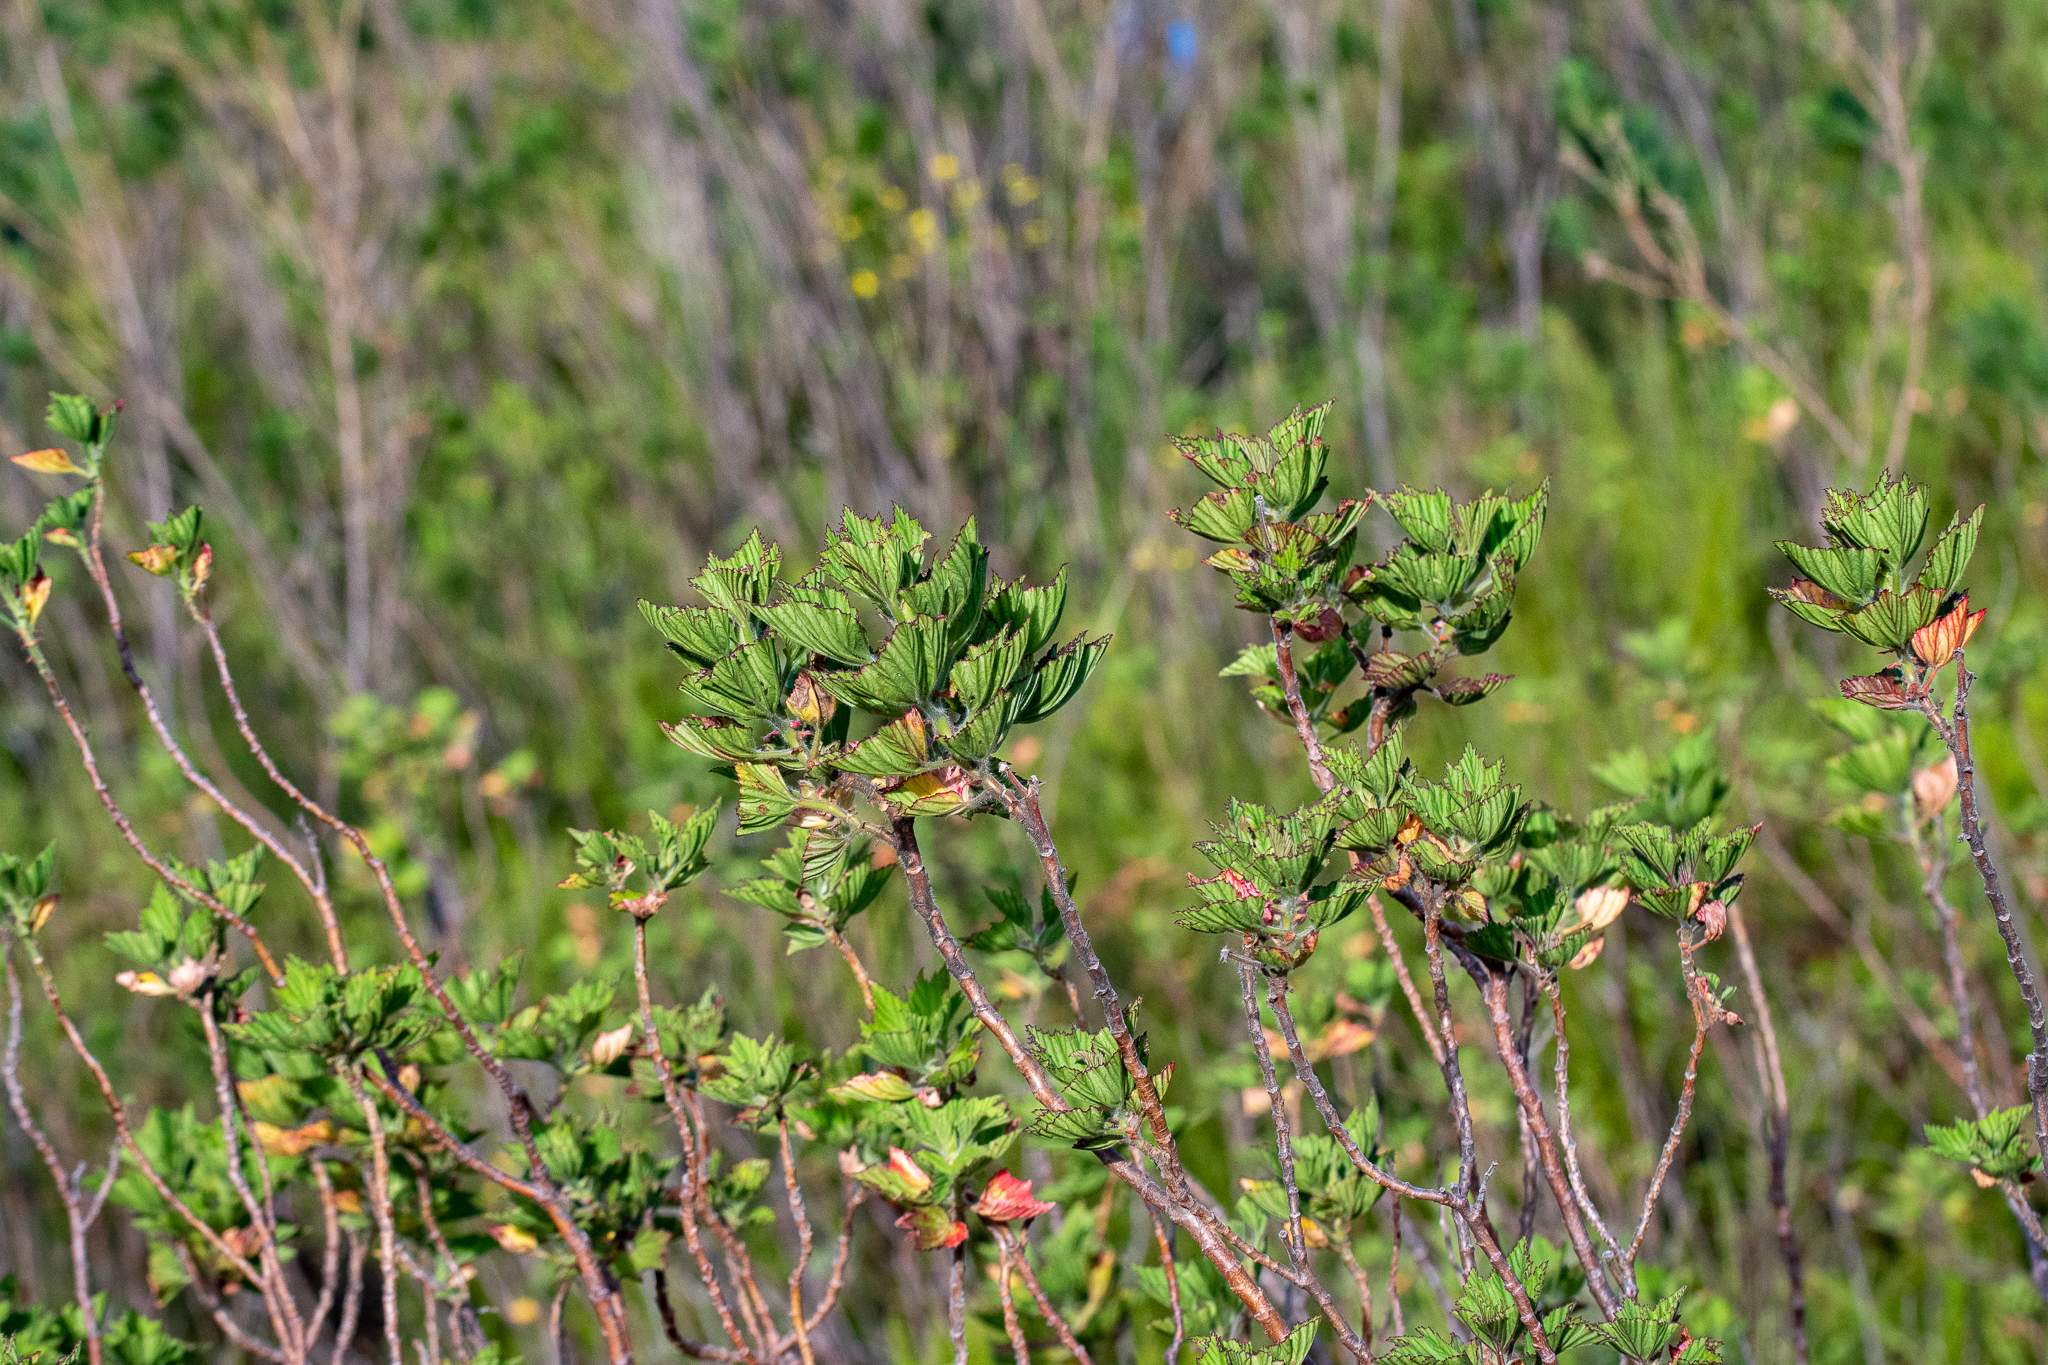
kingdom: Plantae
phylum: Tracheophyta
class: Magnoliopsida
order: Geraniales
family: Geraniaceae
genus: Pelargonium
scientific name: Pelargonium cucullatum
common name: Tree pelargonium
